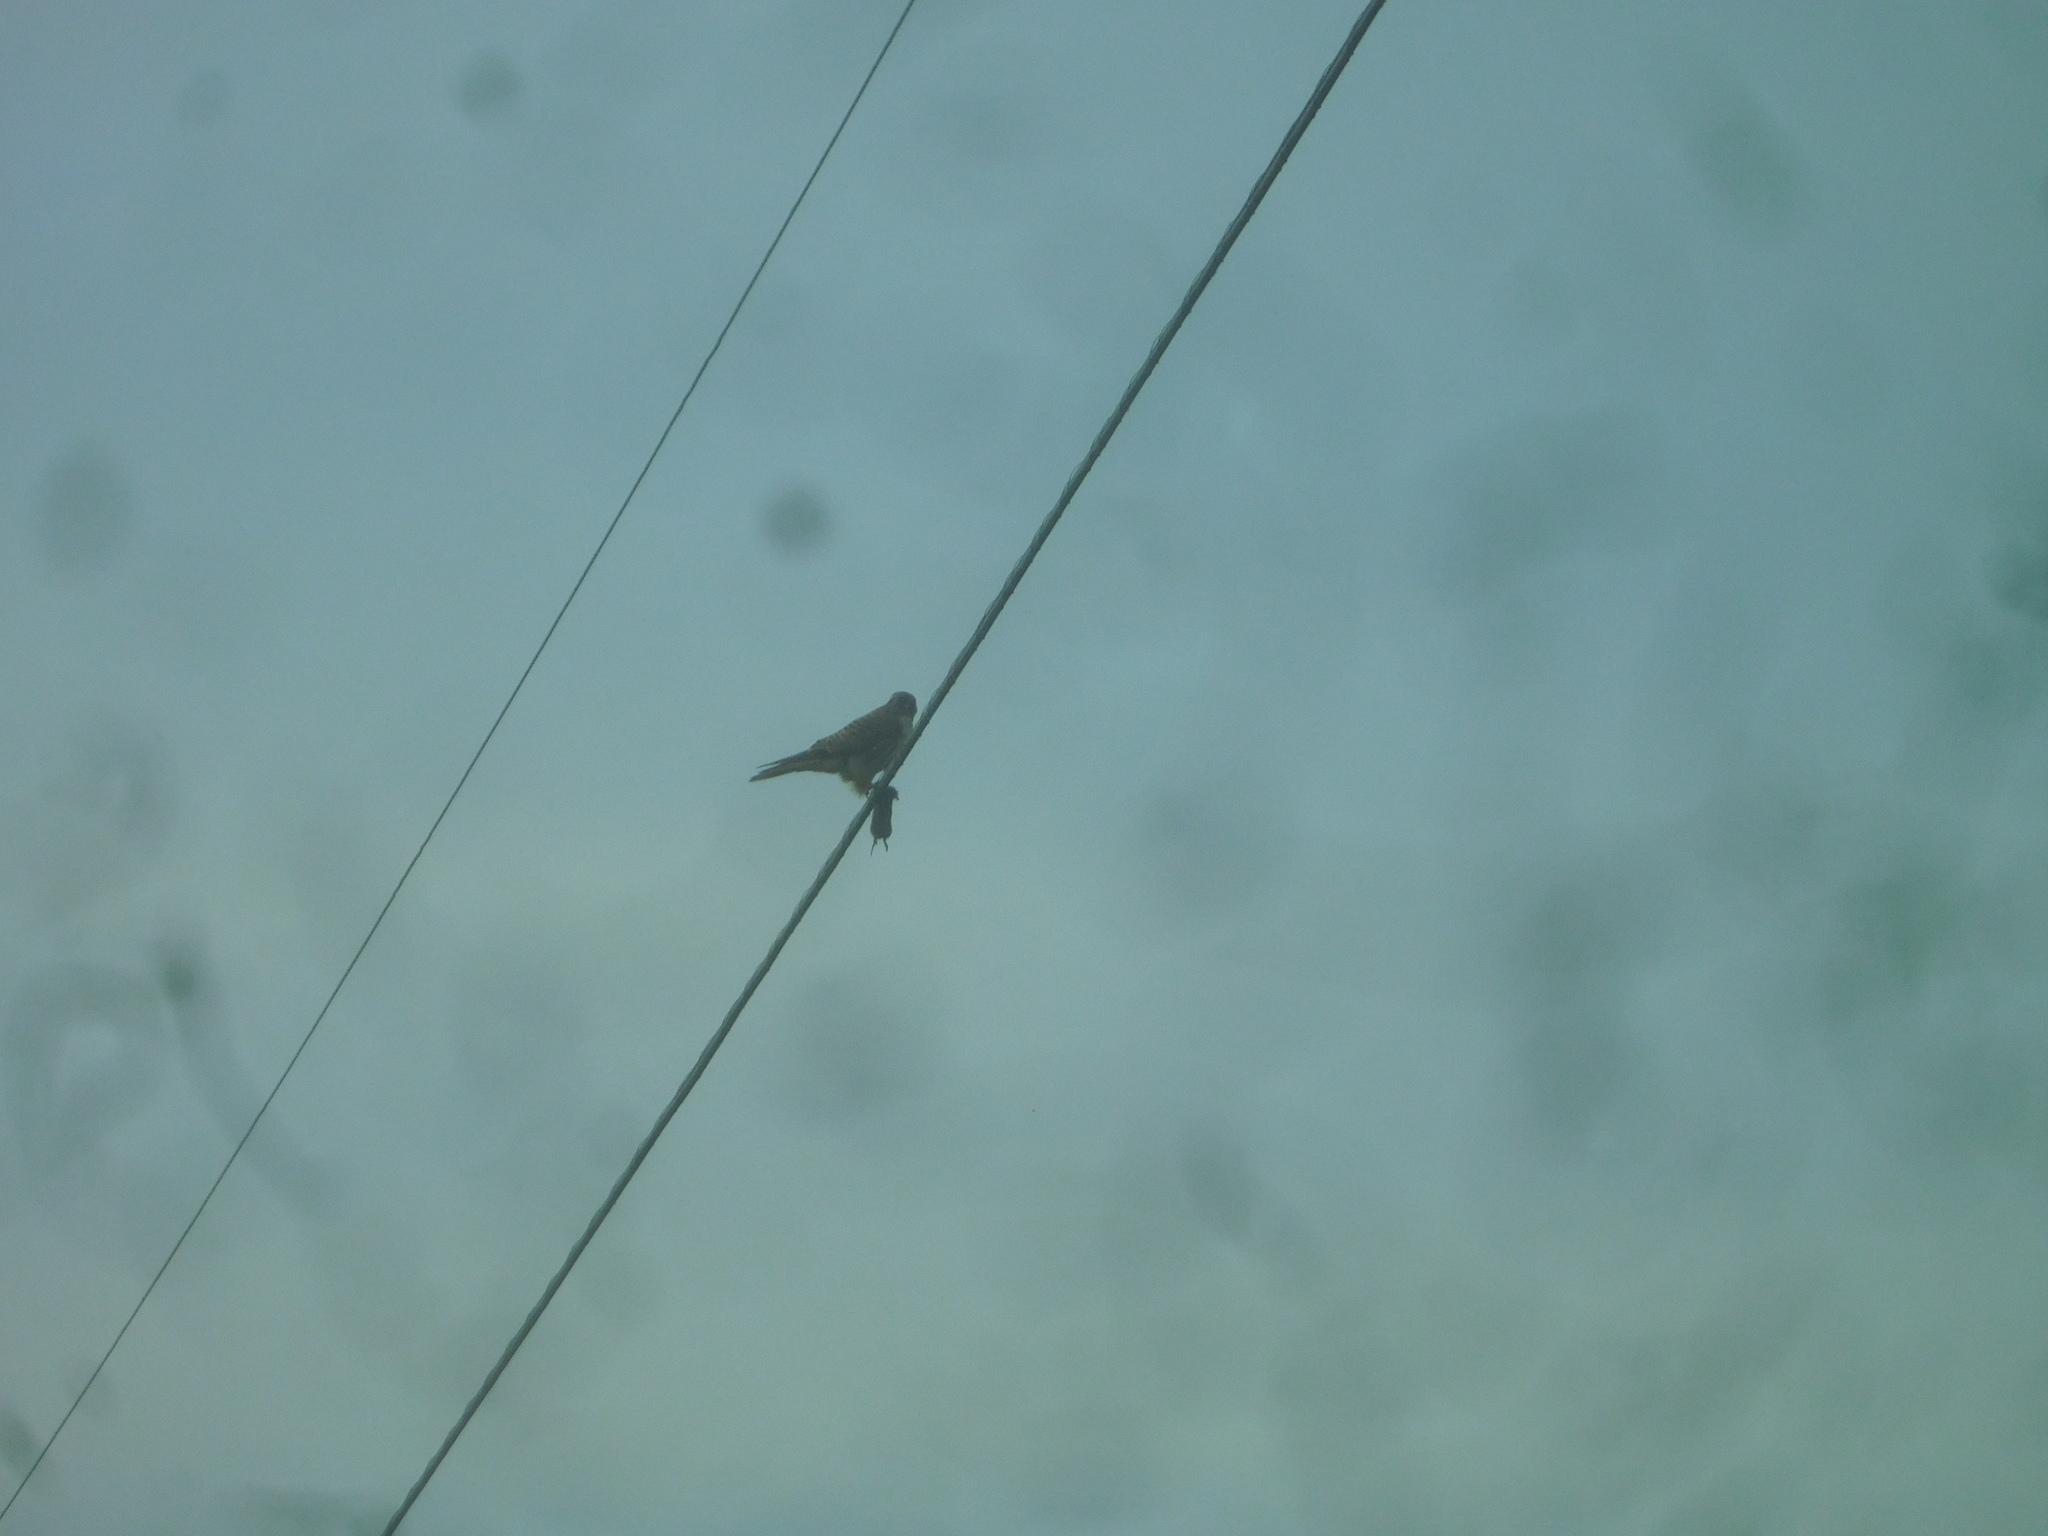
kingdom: Animalia
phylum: Chordata
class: Aves
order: Falconiformes
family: Falconidae
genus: Falco
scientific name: Falco sparverius
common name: American kestrel
